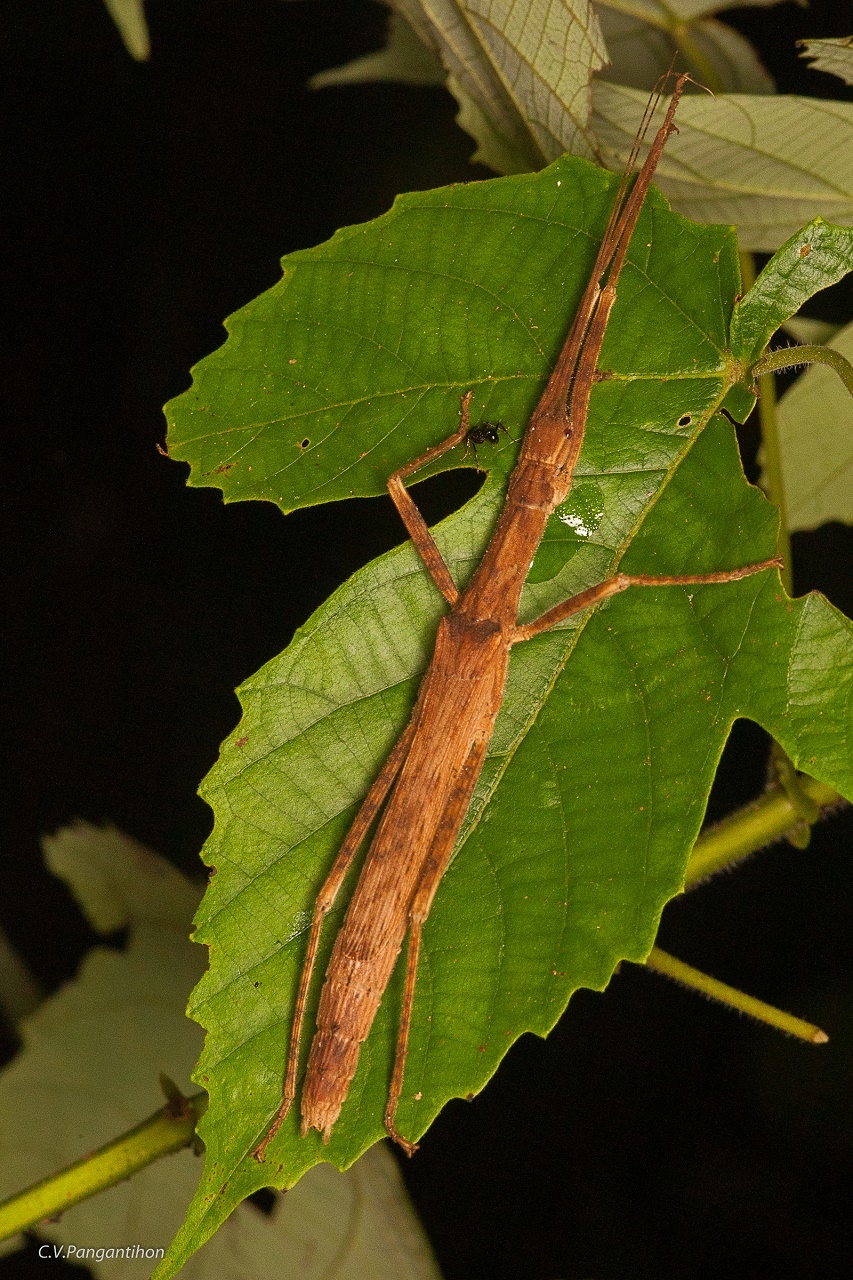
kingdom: Animalia
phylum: Arthropoda
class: Insecta
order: Phasmida
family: Lonchodidae
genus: Asceles
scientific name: Asceles margaritatus
